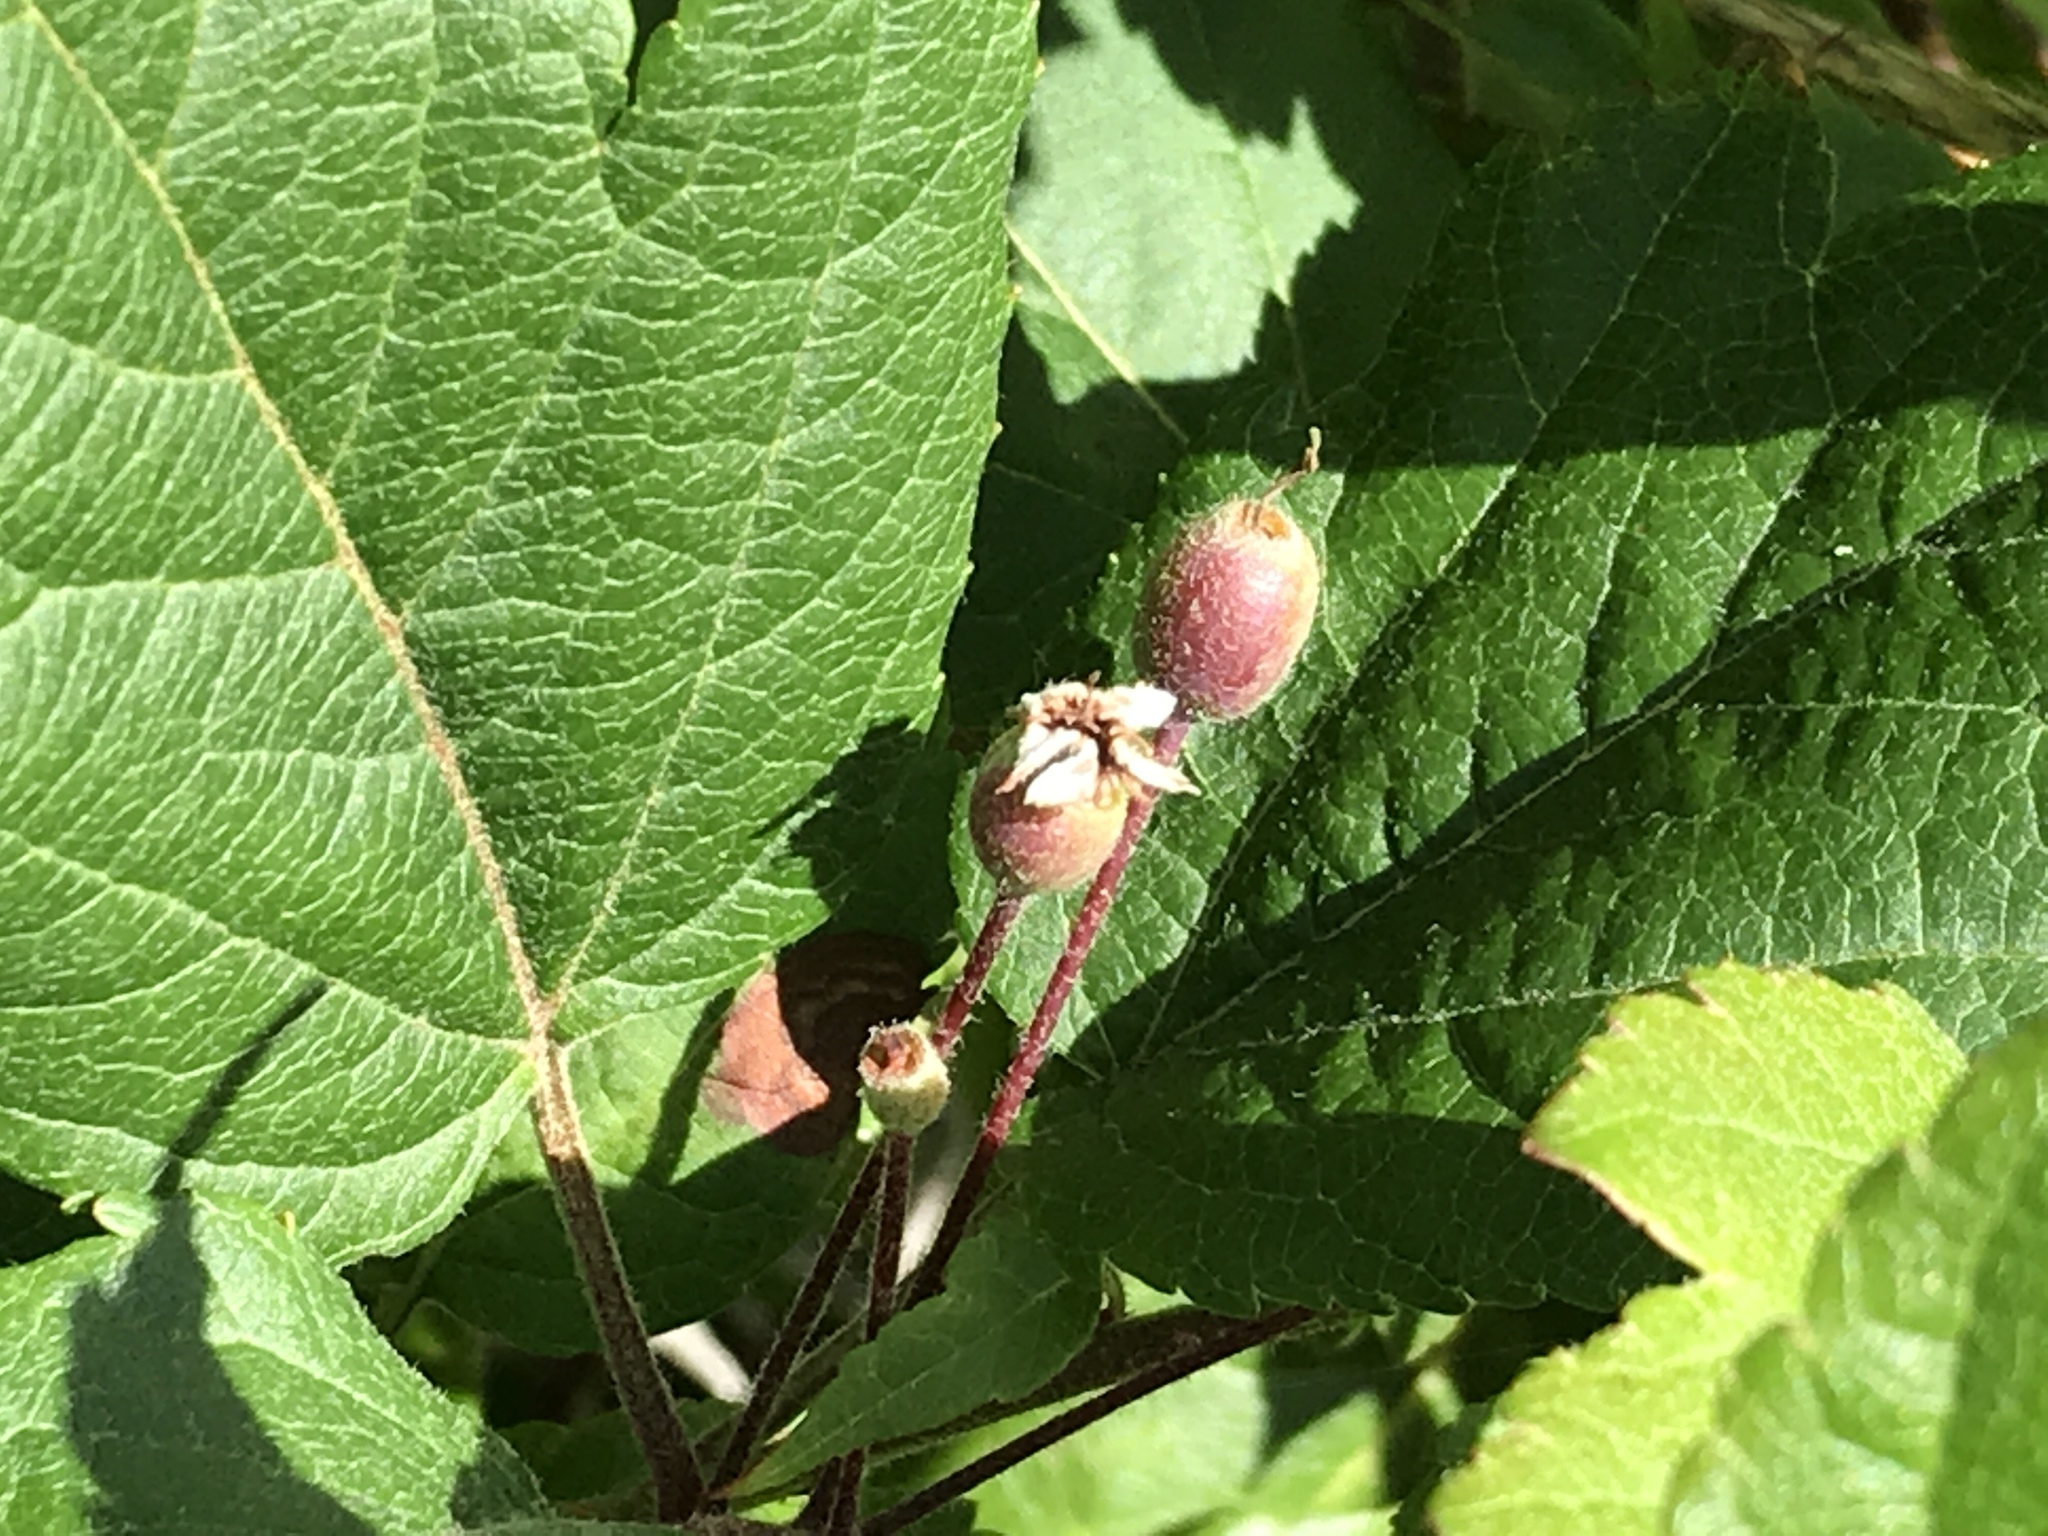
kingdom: Plantae
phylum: Tracheophyta
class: Magnoliopsida
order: Rosales
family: Rosaceae
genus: Malus
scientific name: Malus fusca
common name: Oregon crab apple
